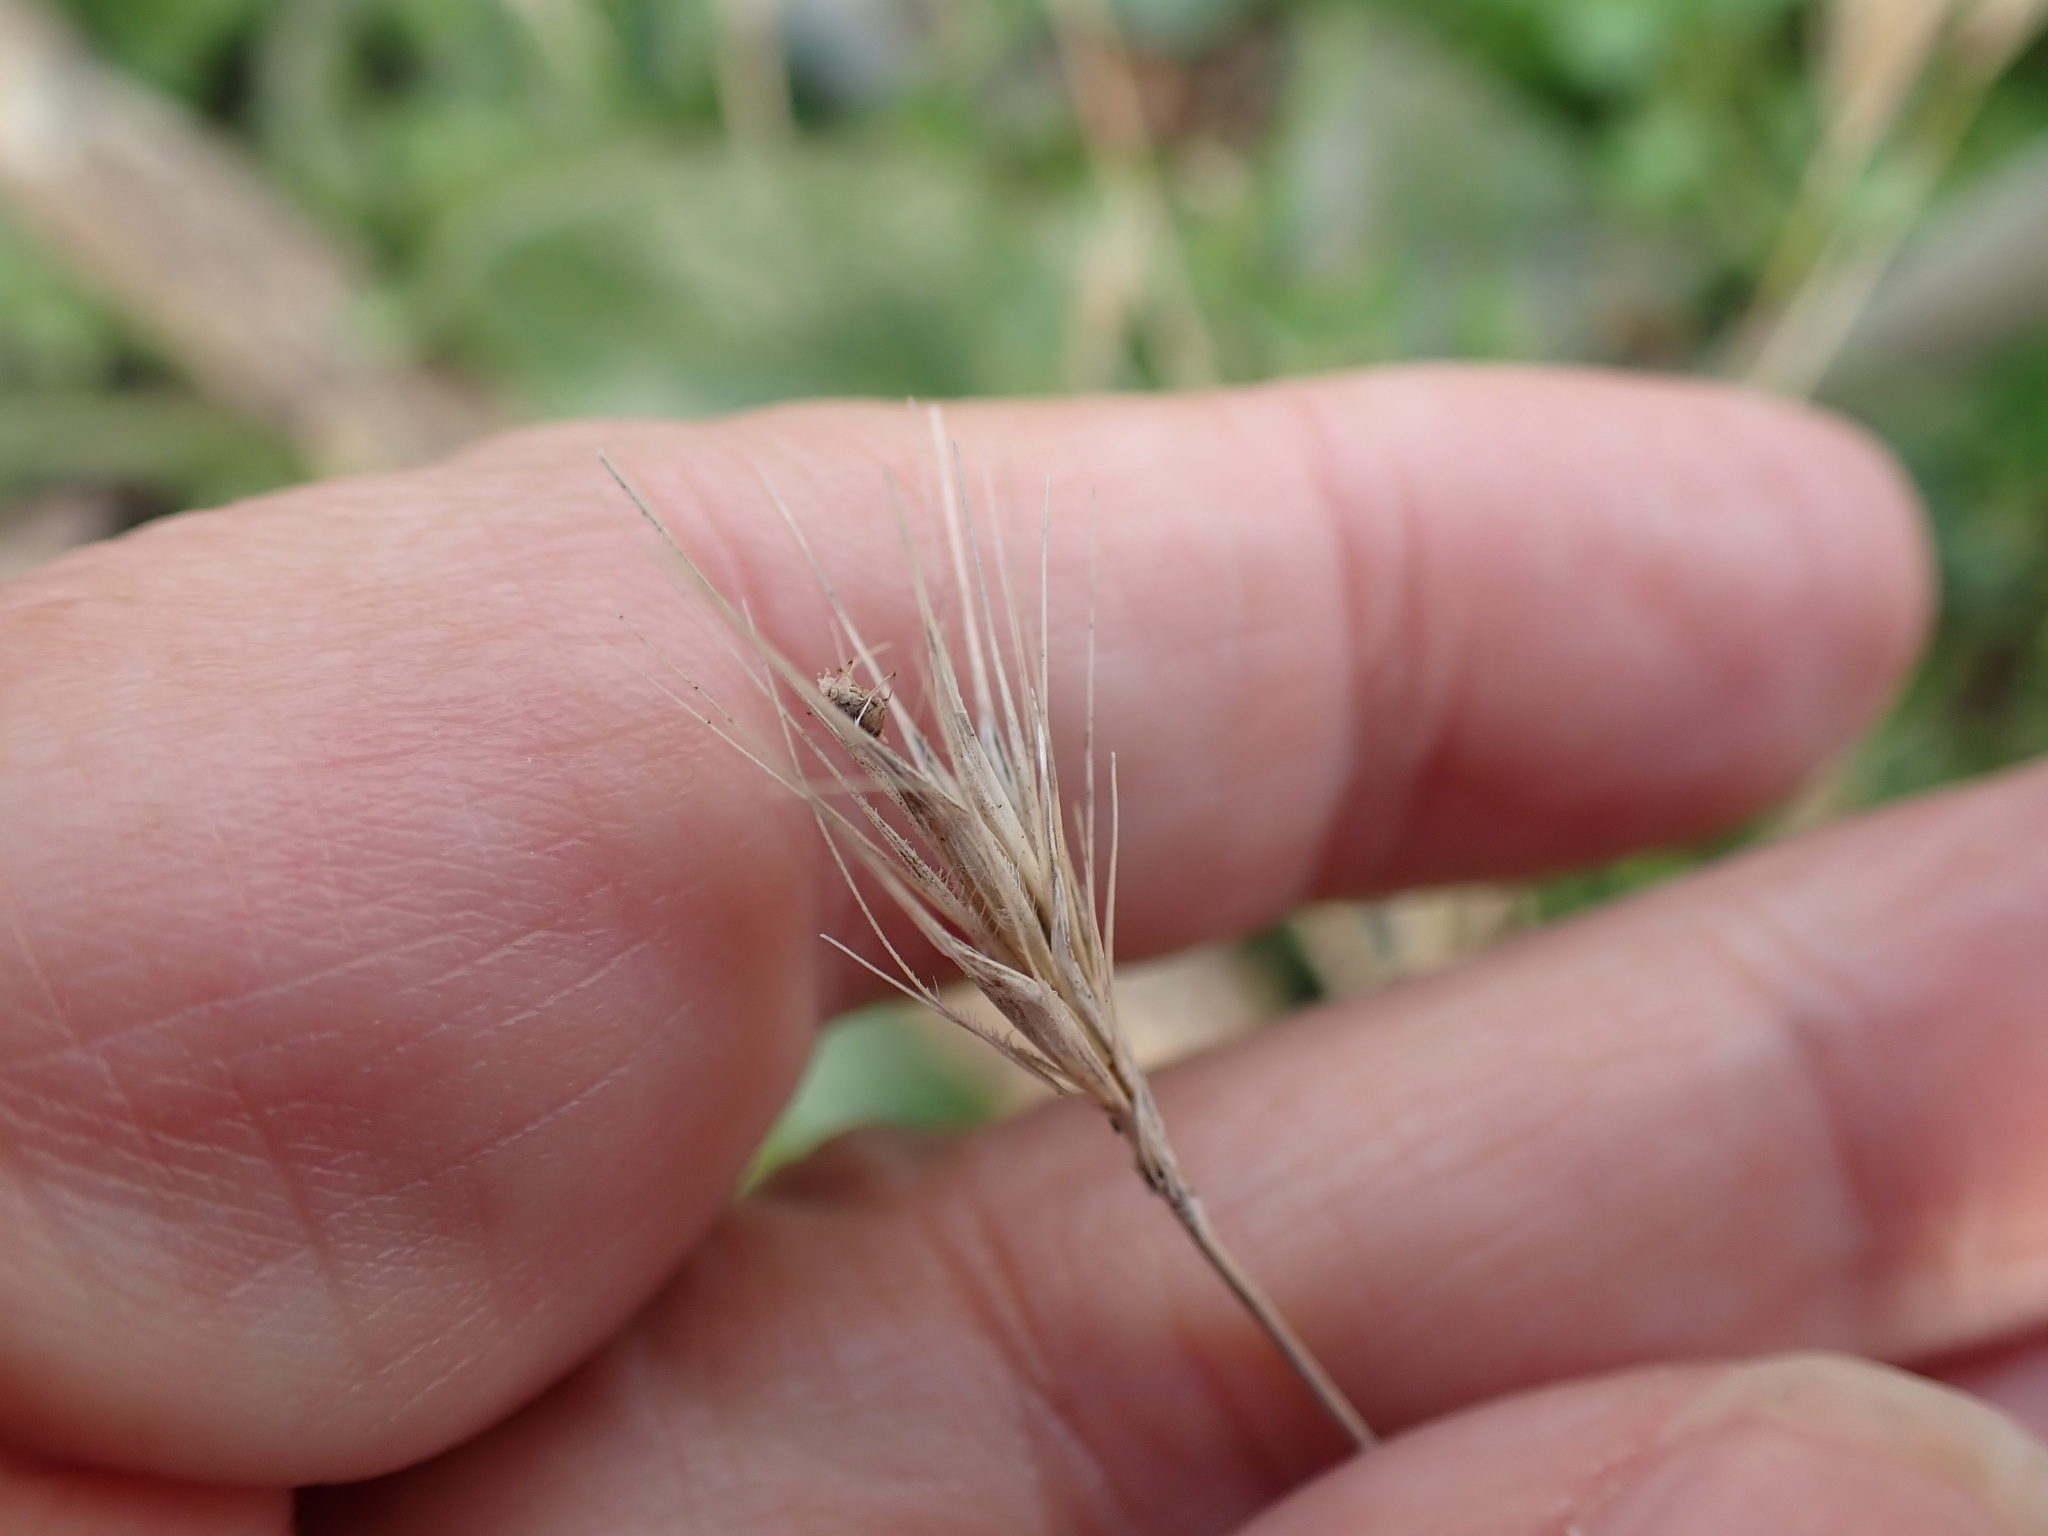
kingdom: Plantae
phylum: Tracheophyta
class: Liliopsida
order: Poales
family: Poaceae
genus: Hordeum
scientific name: Hordeum murinum
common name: Wall barley
